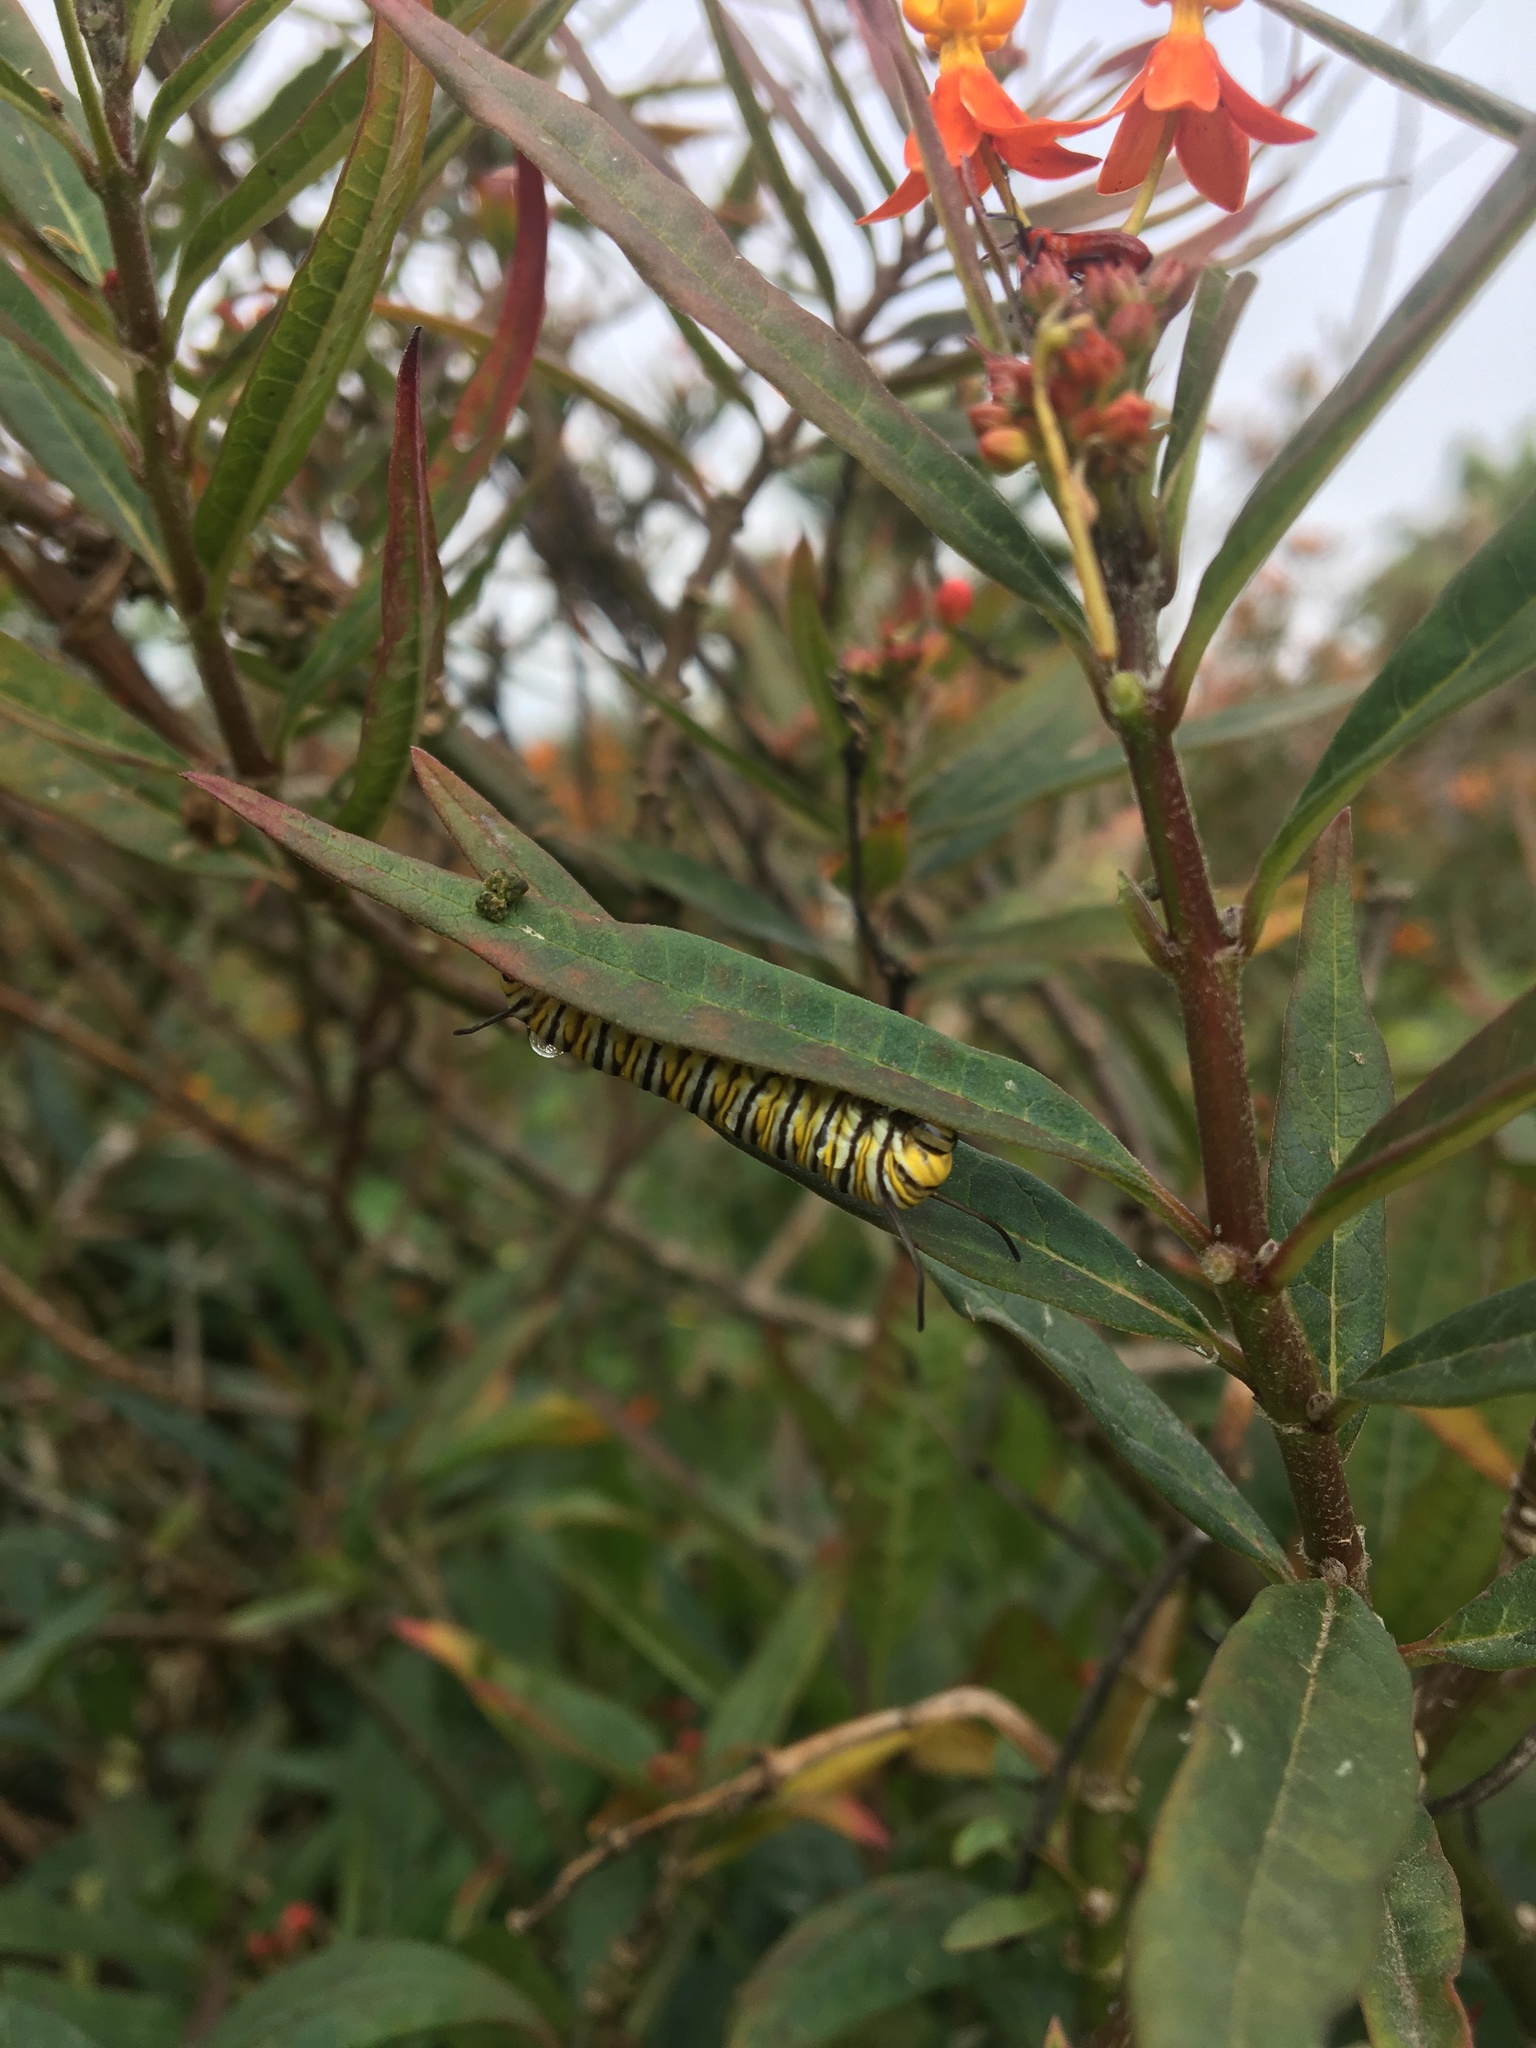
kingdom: Animalia
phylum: Arthropoda
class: Insecta
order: Lepidoptera
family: Nymphalidae
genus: Danaus
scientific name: Danaus plexippus
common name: Monarch
